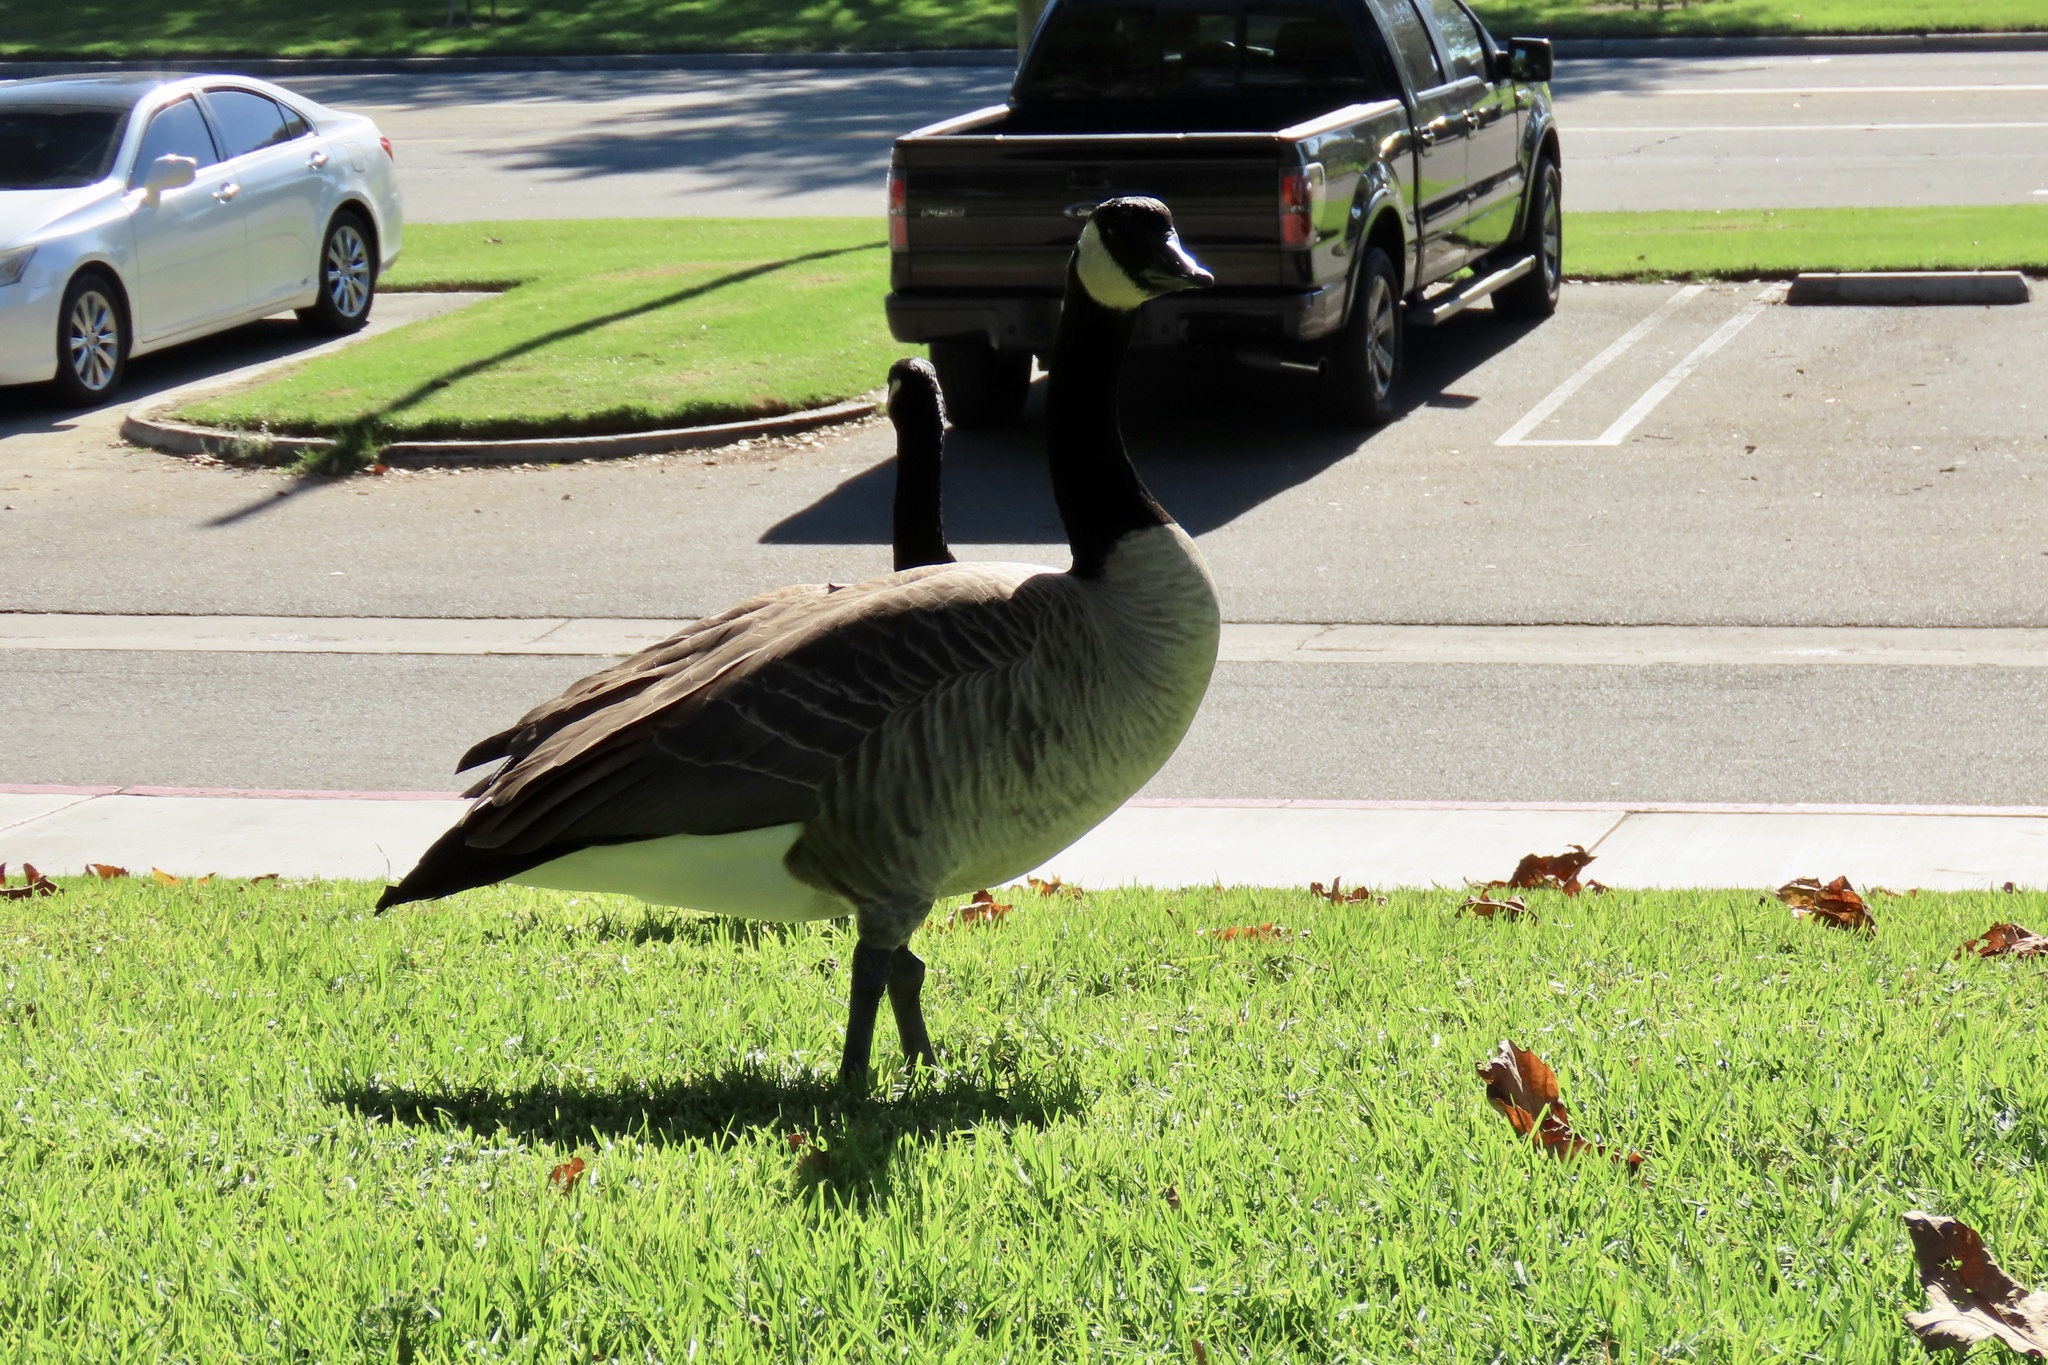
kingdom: Animalia
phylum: Chordata
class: Aves
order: Anseriformes
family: Anatidae
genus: Branta
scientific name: Branta canadensis
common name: Canada goose
